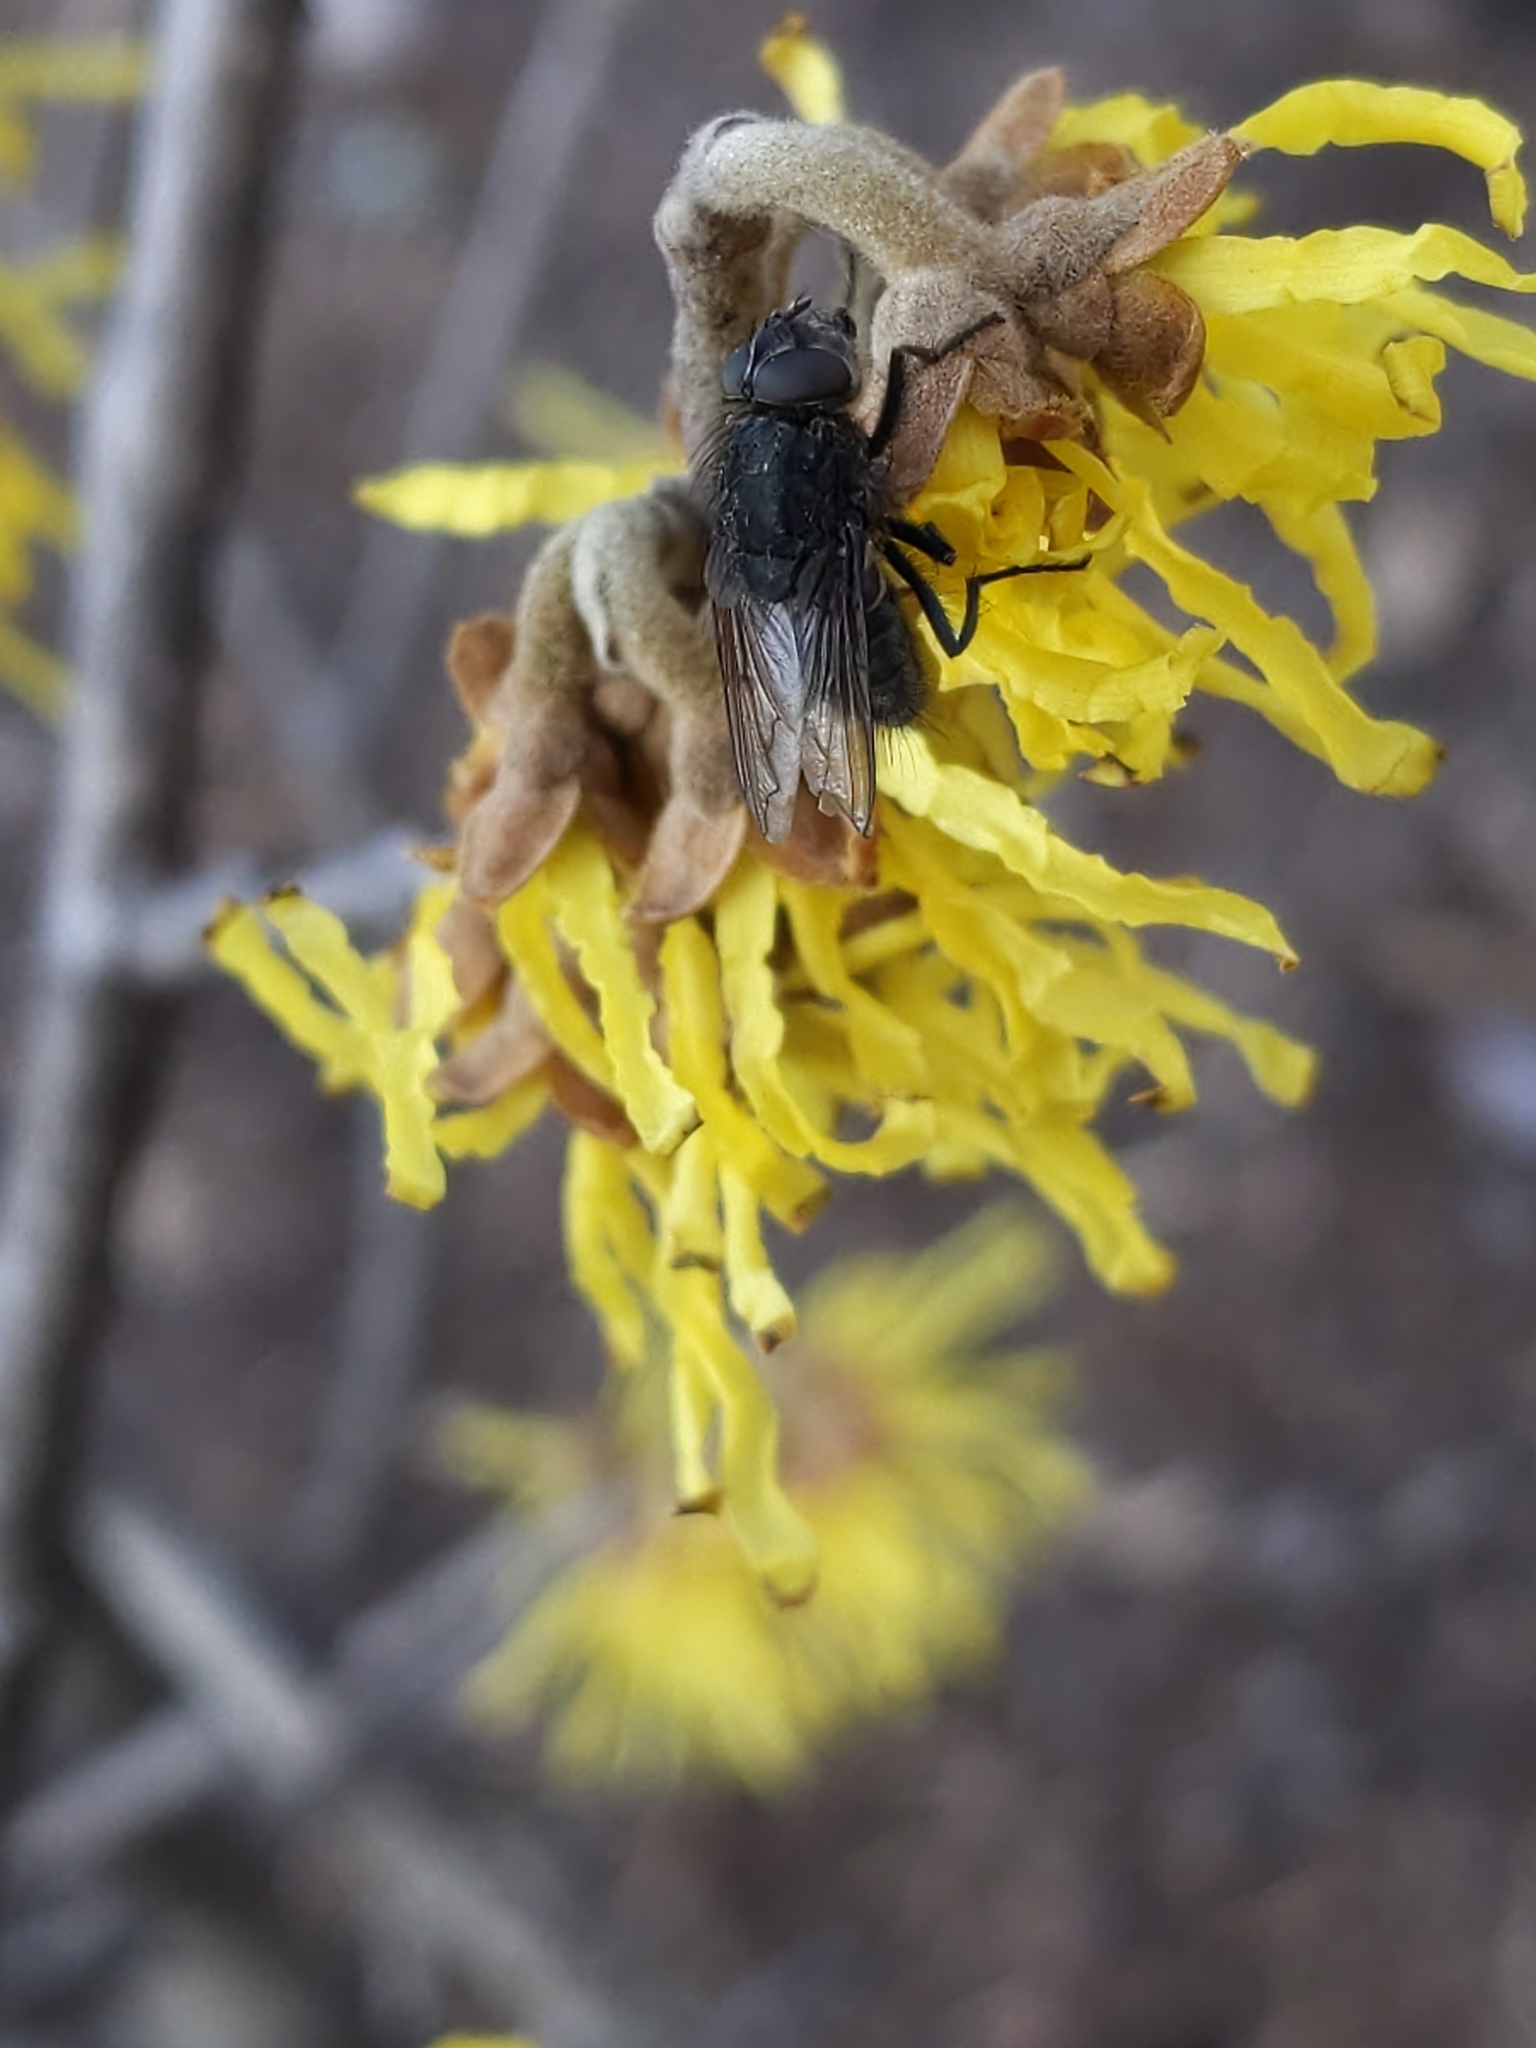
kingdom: Animalia
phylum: Arthropoda
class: Insecta
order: Diptera
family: Polleniidae
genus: Pollenia
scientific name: Pollenia
